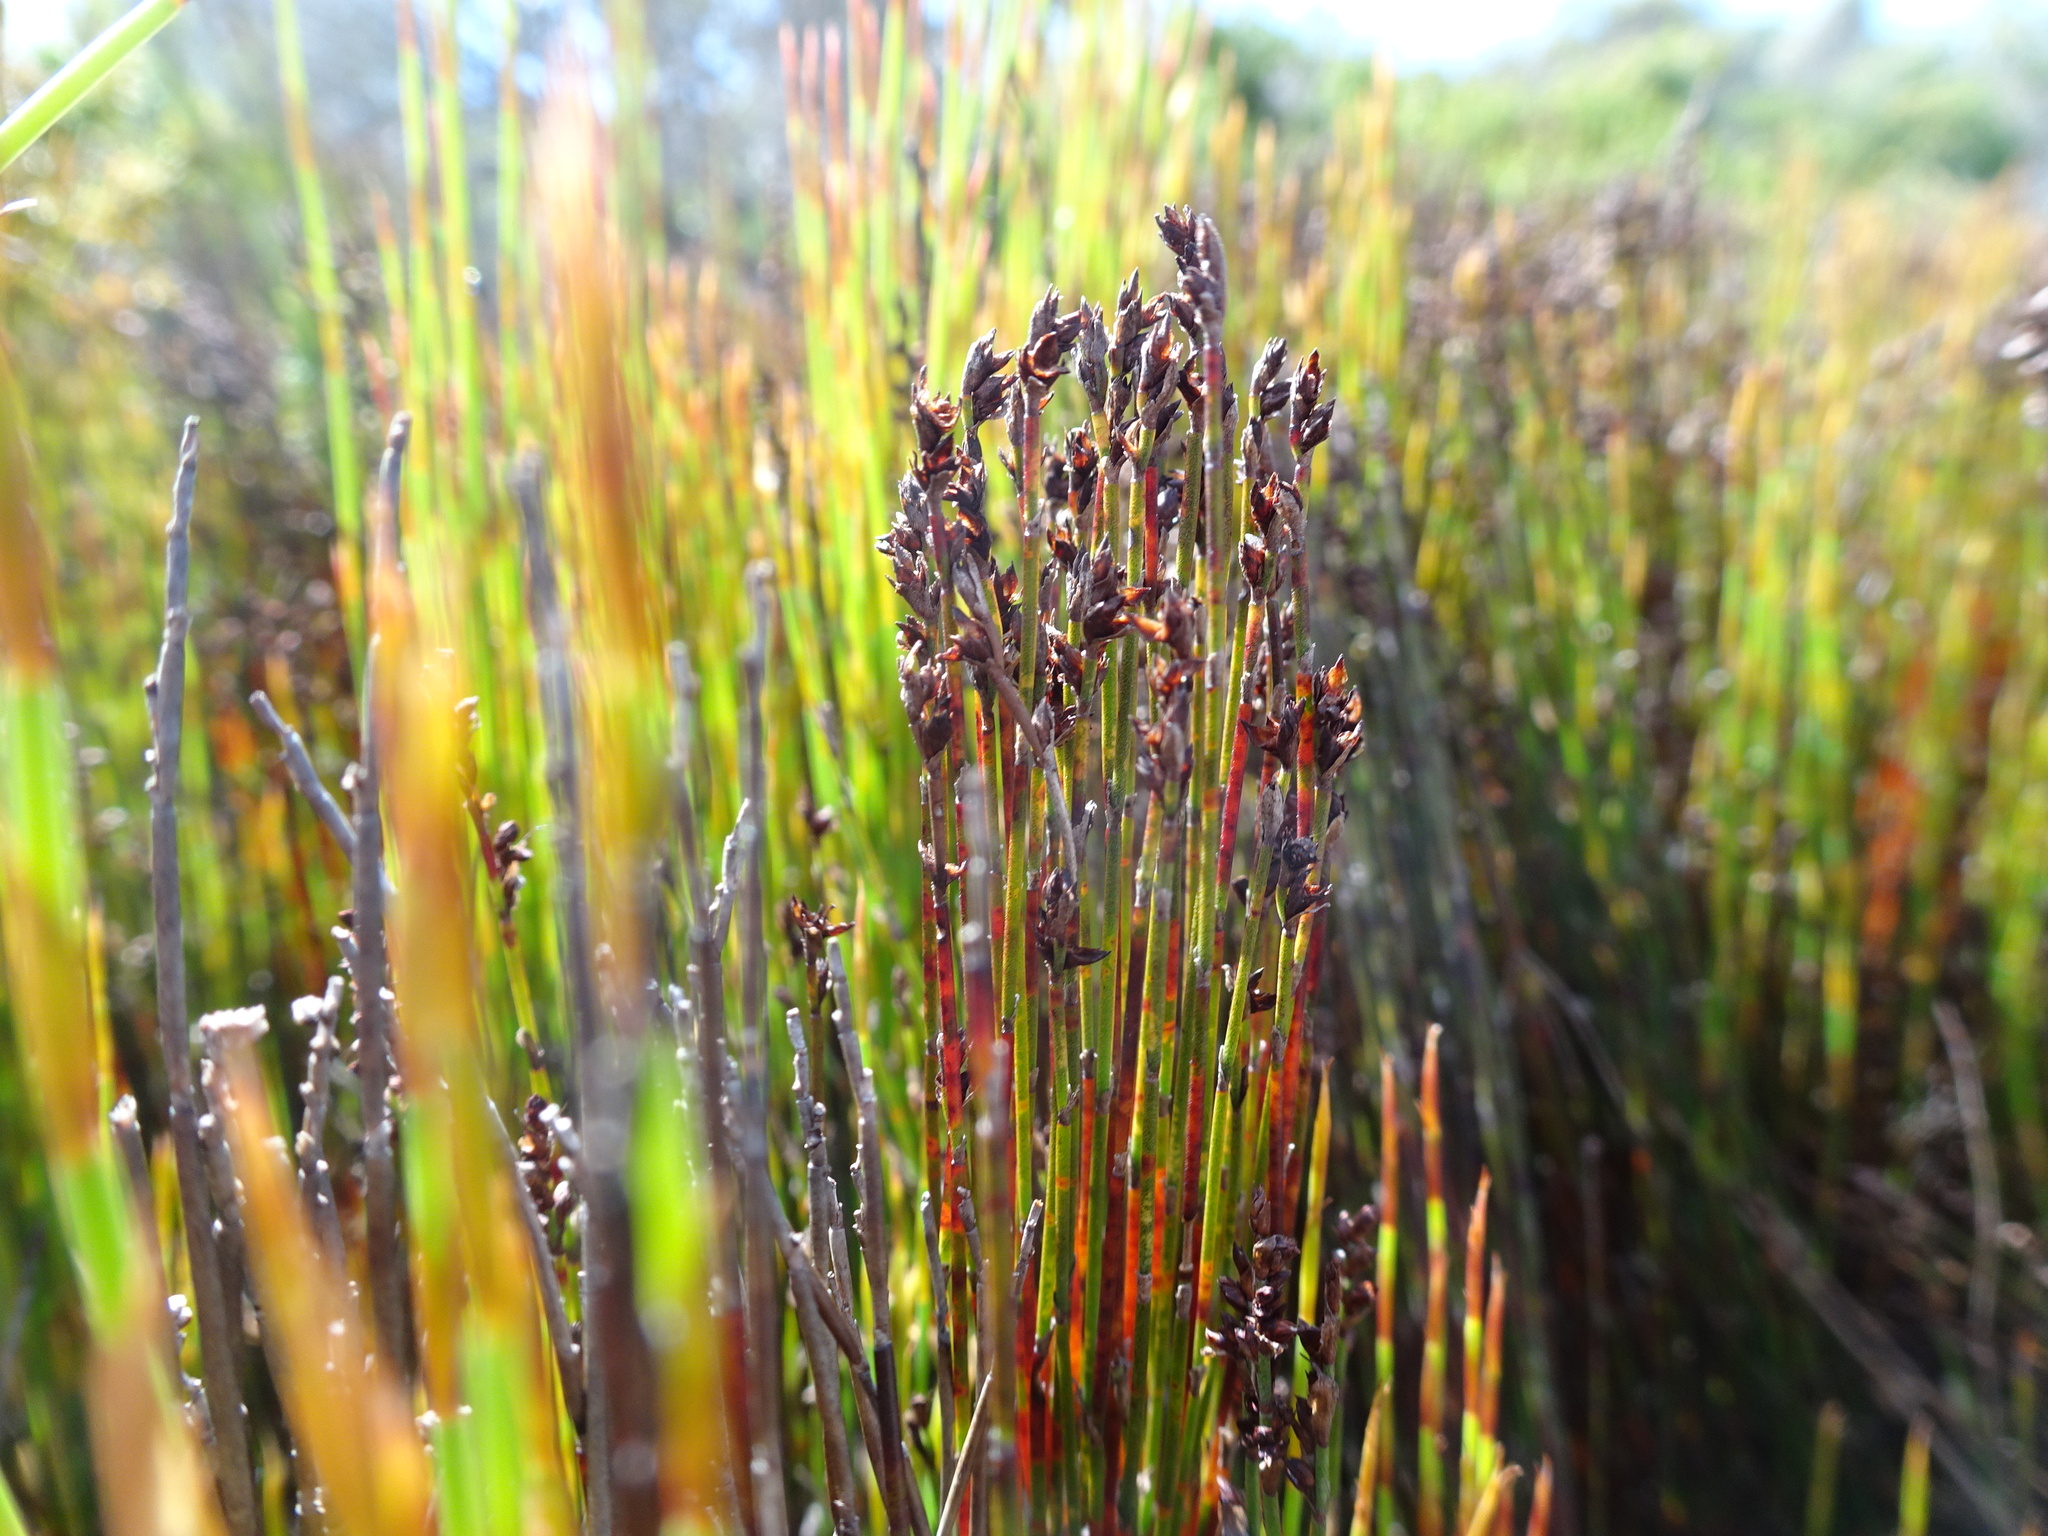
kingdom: Plantae
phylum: Tracheophyta
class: Liliopsida
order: Poales
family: Restionaceae
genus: Elegia
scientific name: Elegia microcarpa
